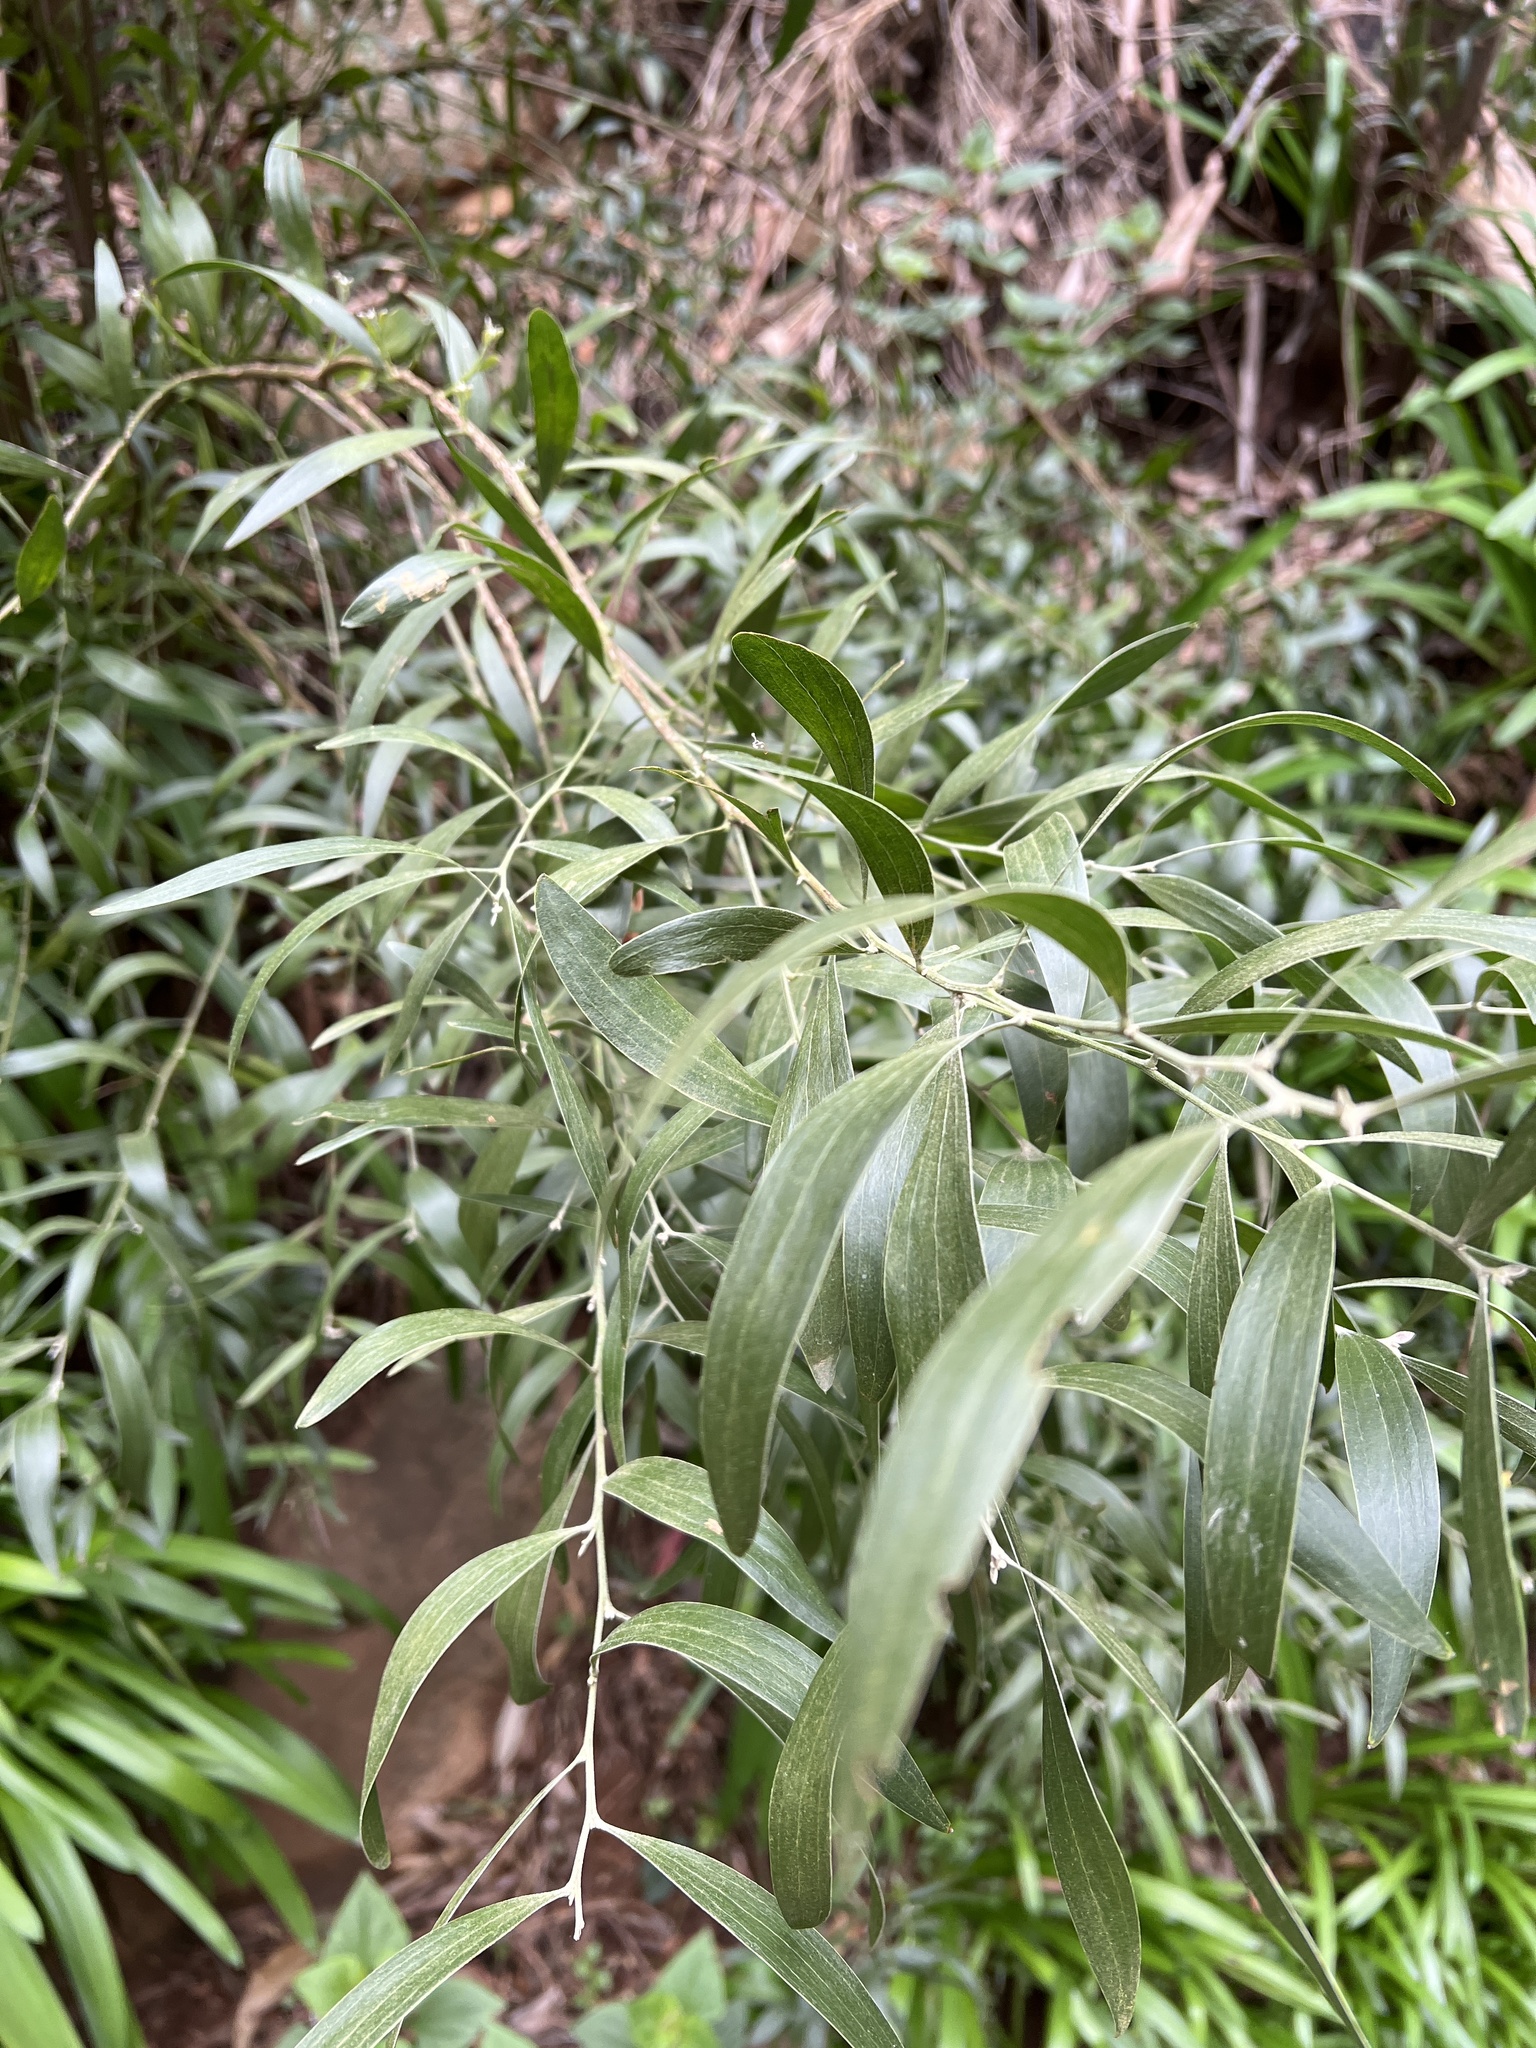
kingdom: Plantae
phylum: Tracheophyta
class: Magnoliopsida
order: Fabales
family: Fabaceae
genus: Acacia
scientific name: Acacia melanoxylon
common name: Blackwood
